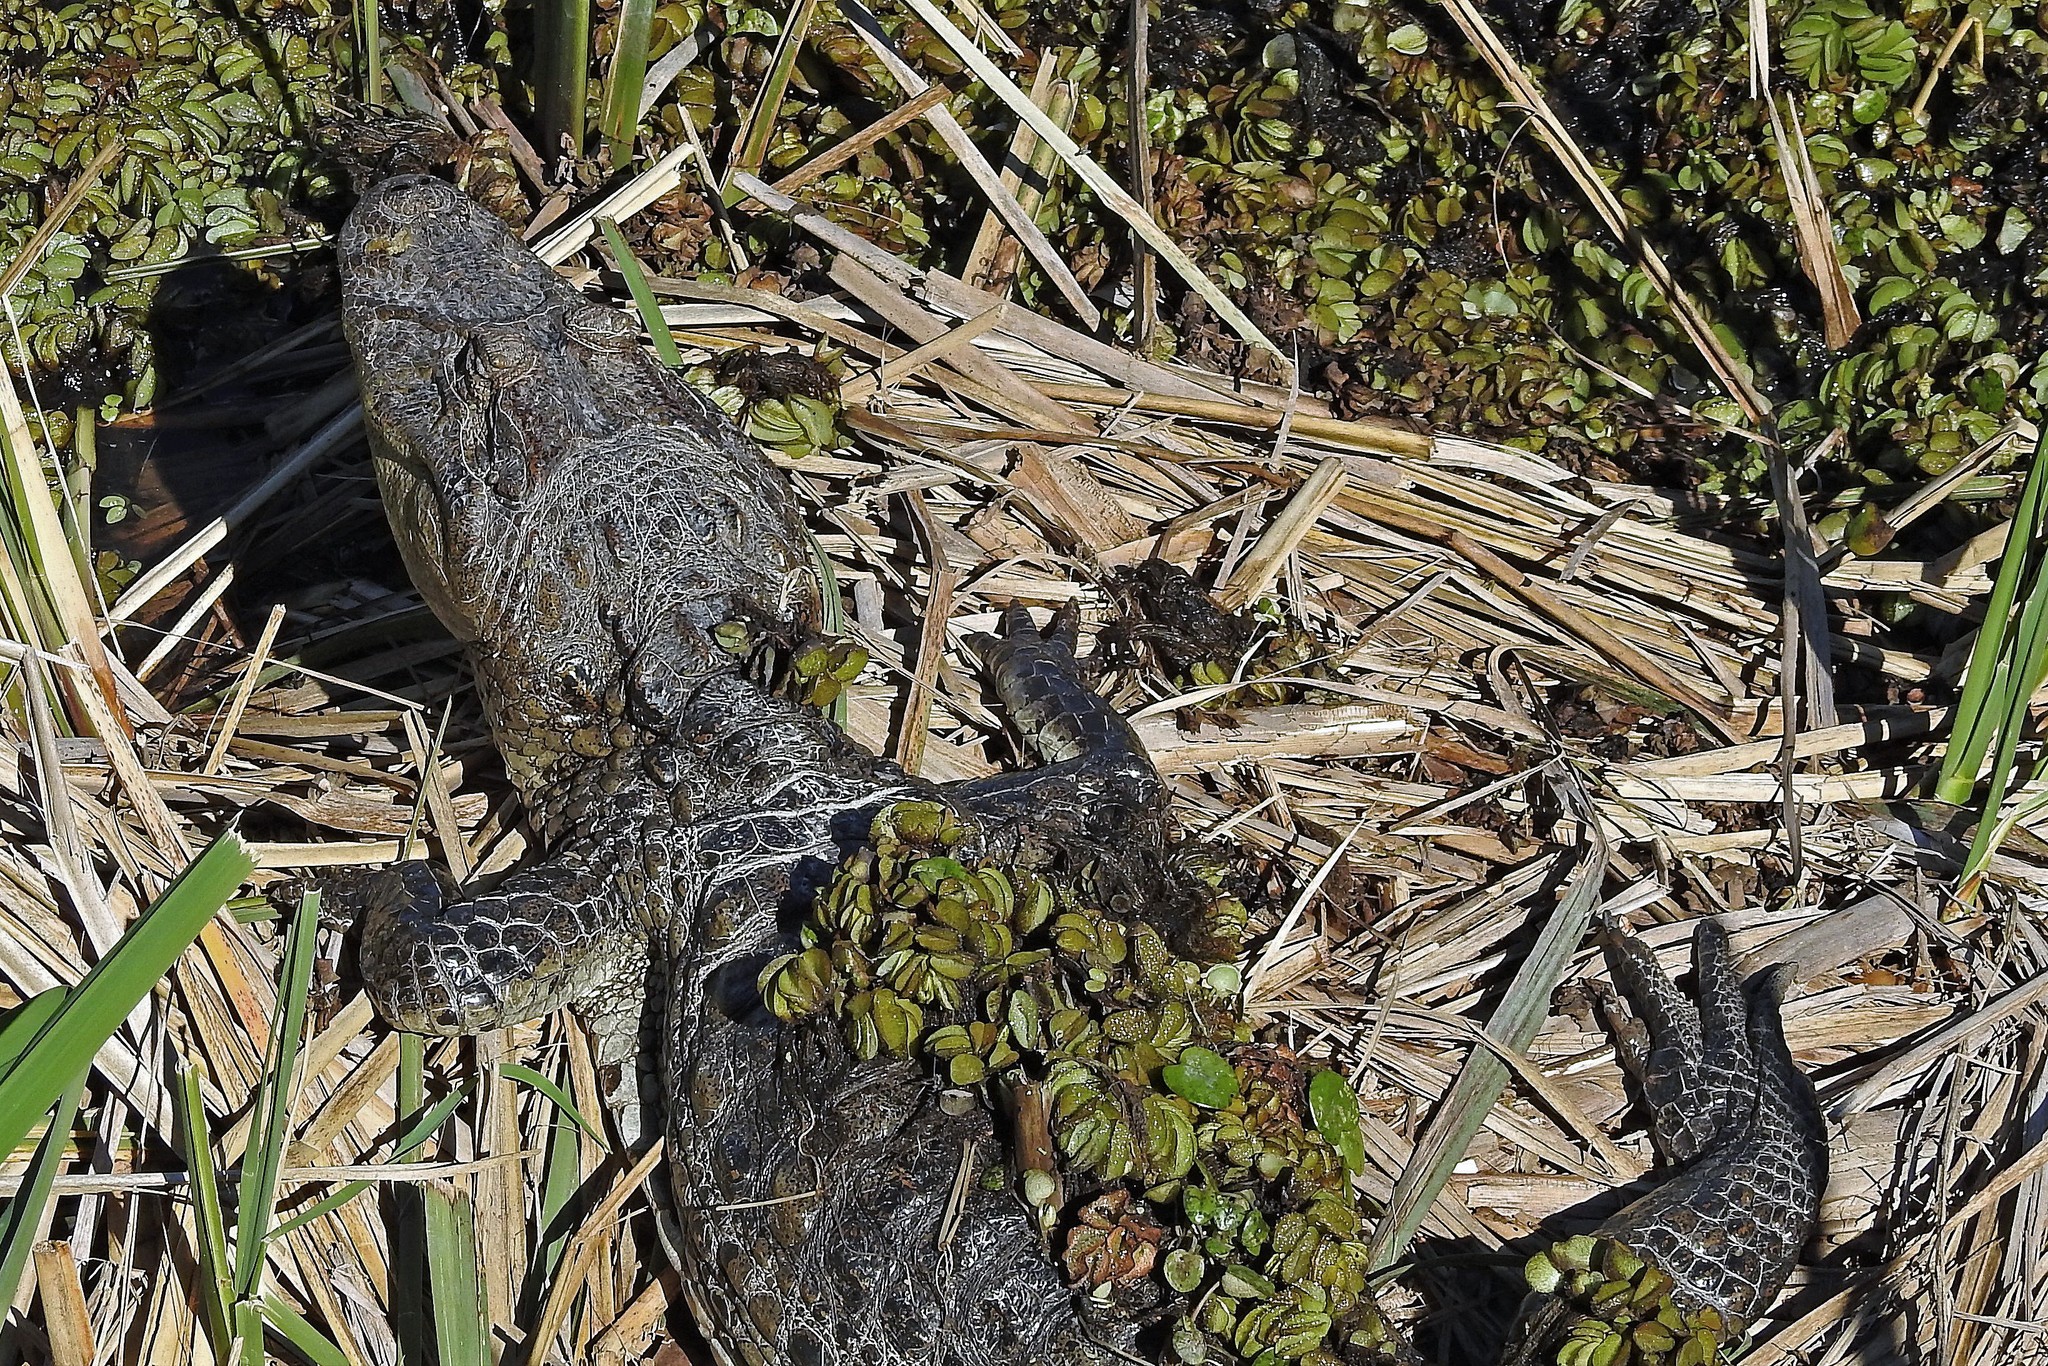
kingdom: Animalia
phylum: Chordata
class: Crocodylia
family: Alligatoridae
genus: Caiman
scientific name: Caiman latirostris
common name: Broad-snouted caiman
